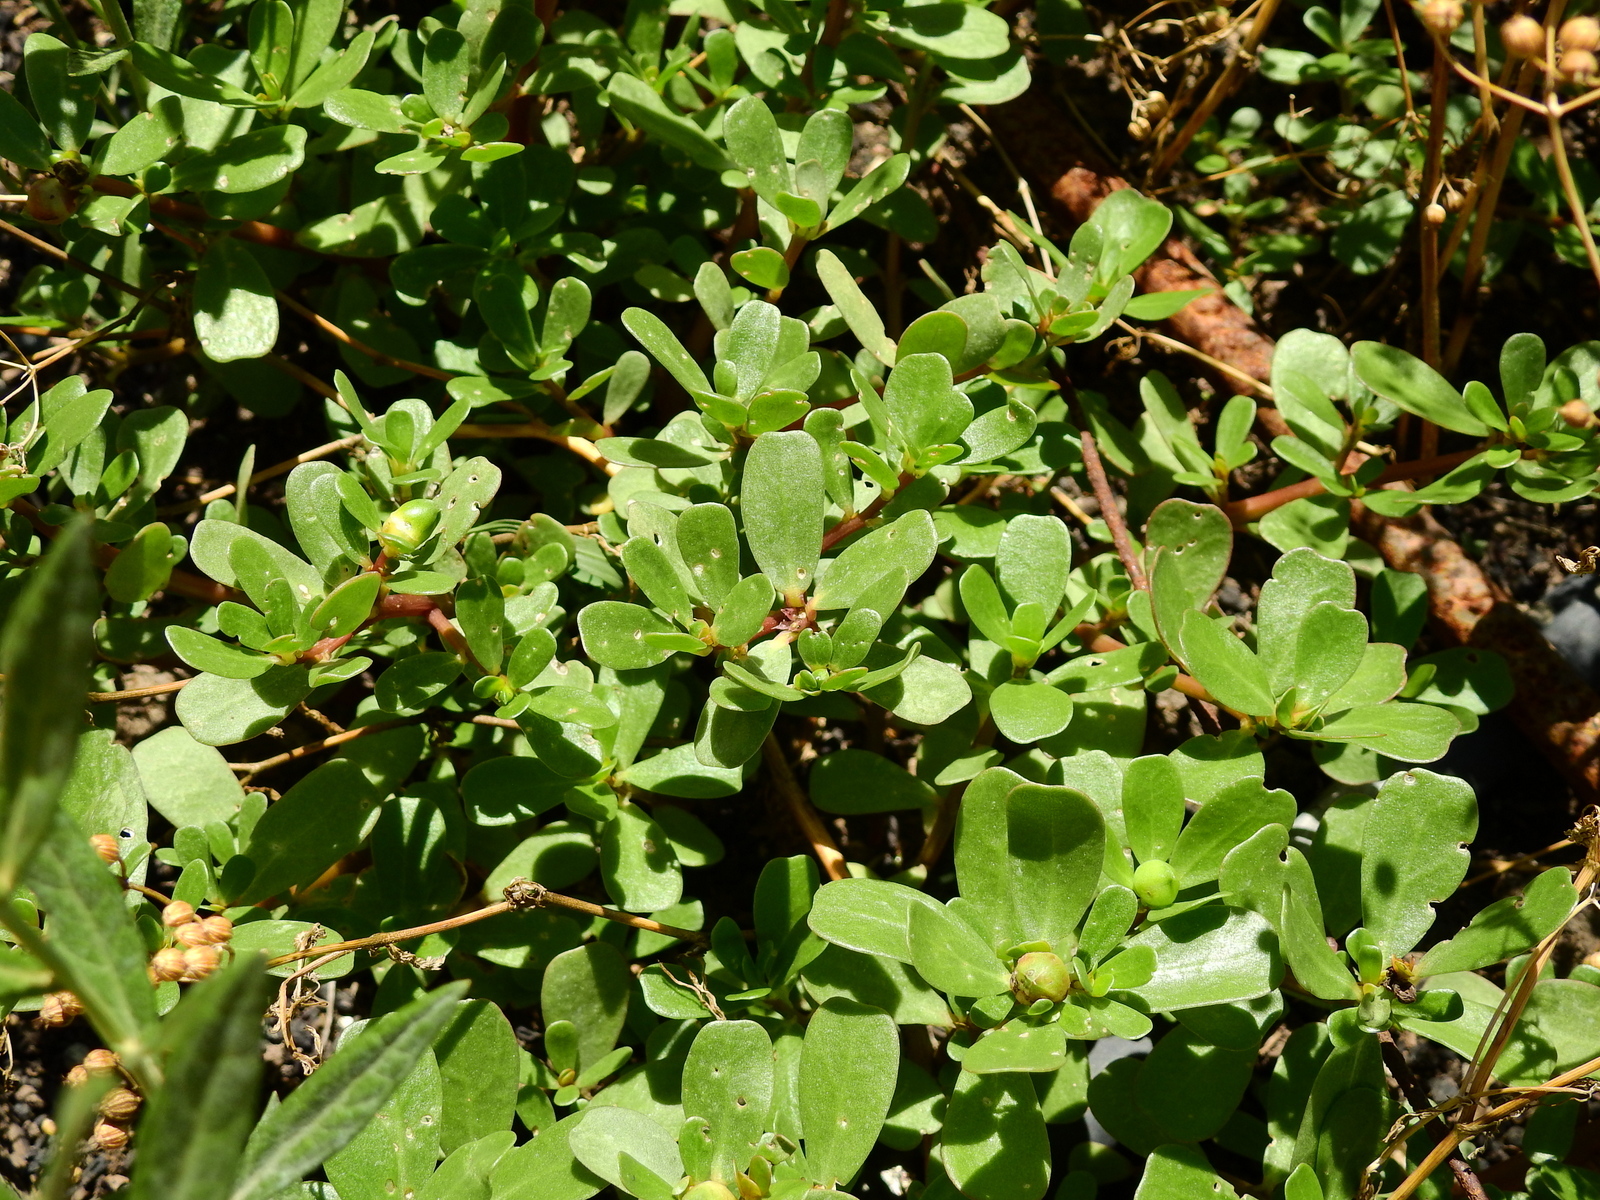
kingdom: Plantae
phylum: Tracheophyta
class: Magnoliopsida
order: Caryophyllales
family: Portulacaceae
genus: Portulaca
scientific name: Portulaca oleracea
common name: Common purslane
